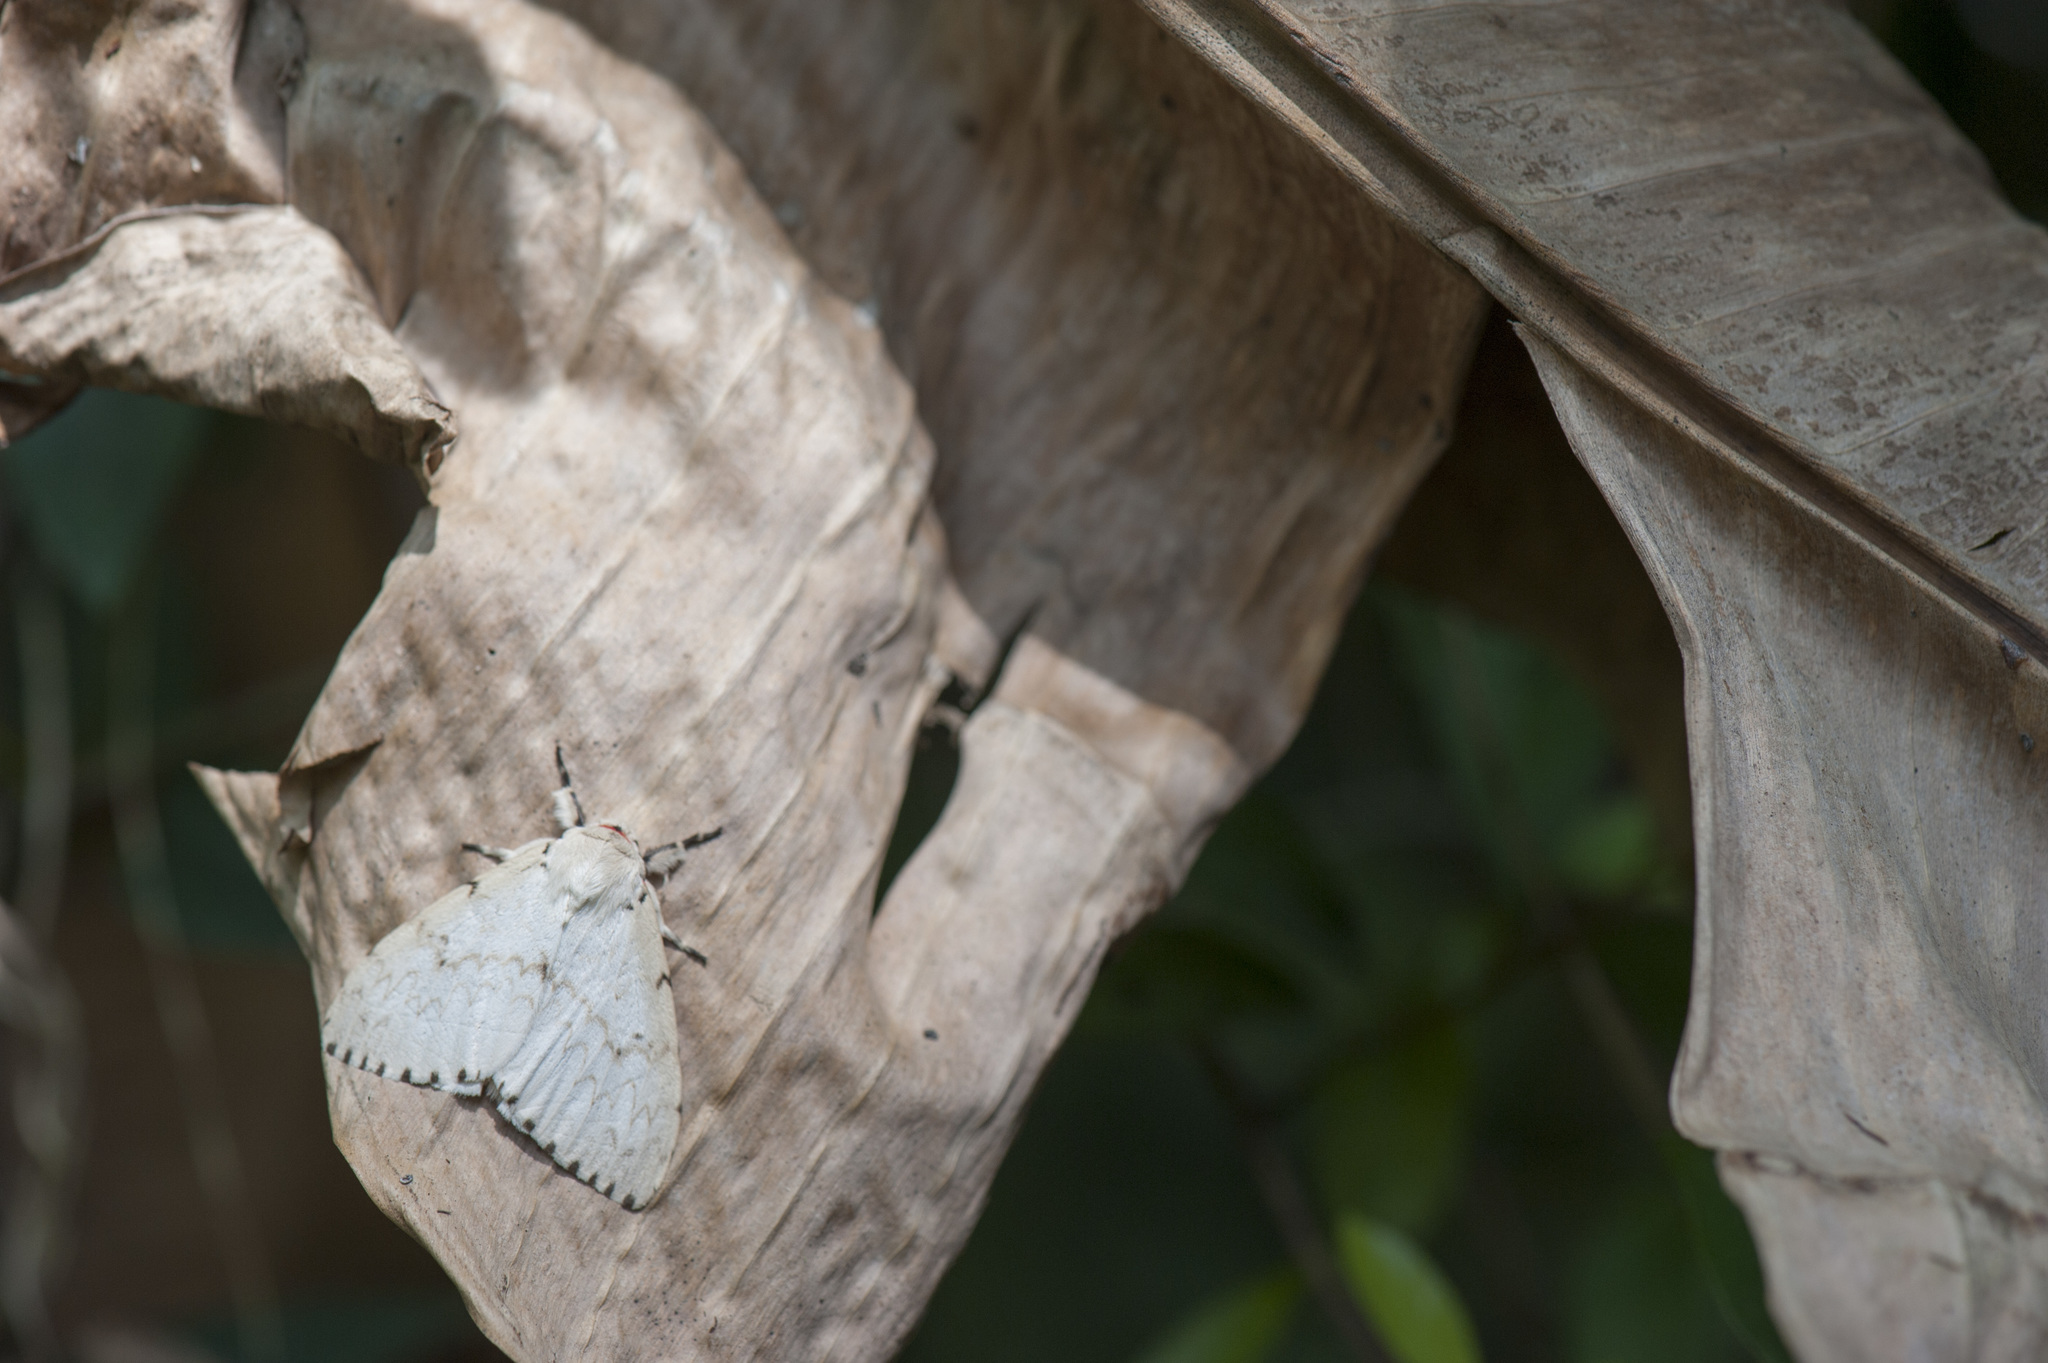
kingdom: Animalia
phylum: Arthropoda
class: Insecta
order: Lepidoptera
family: Erebidae
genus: Lymantria
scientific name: Lymantria xylina
